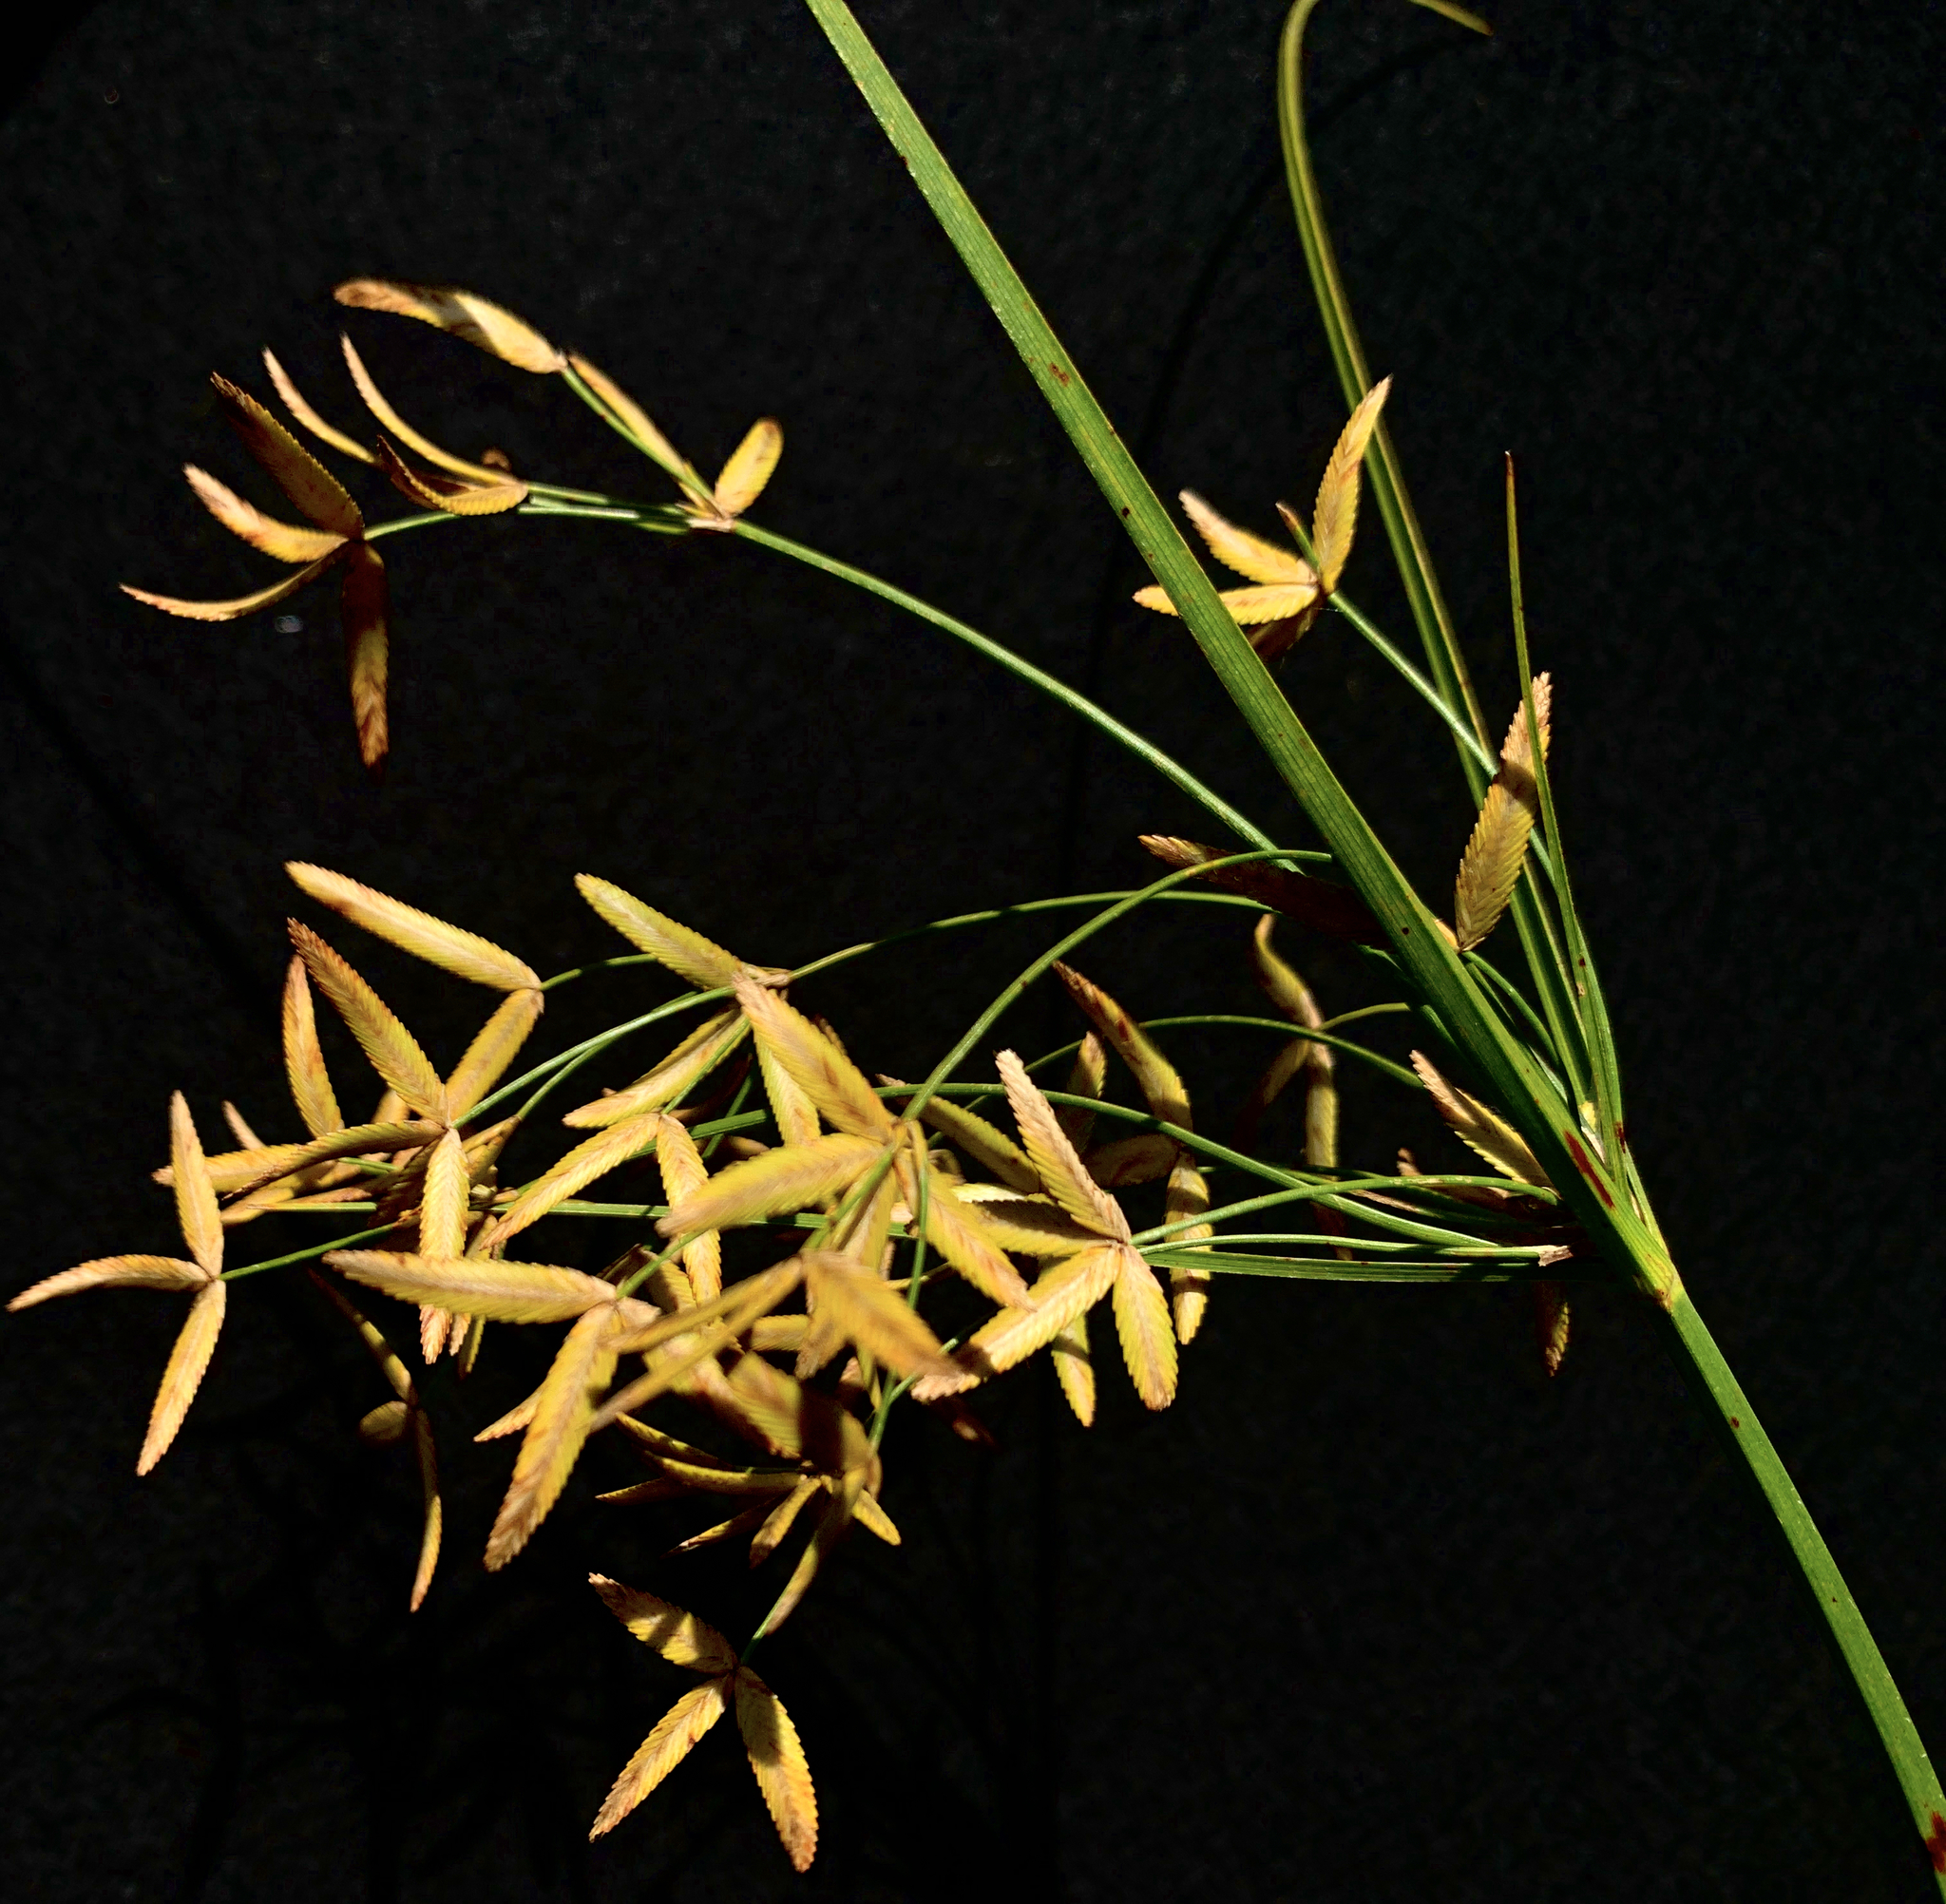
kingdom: Plantae
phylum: Tracheophyta
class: Liliopsida
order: Poales
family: Cyperaceae
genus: Cyperus
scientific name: Cyperus lecontei
